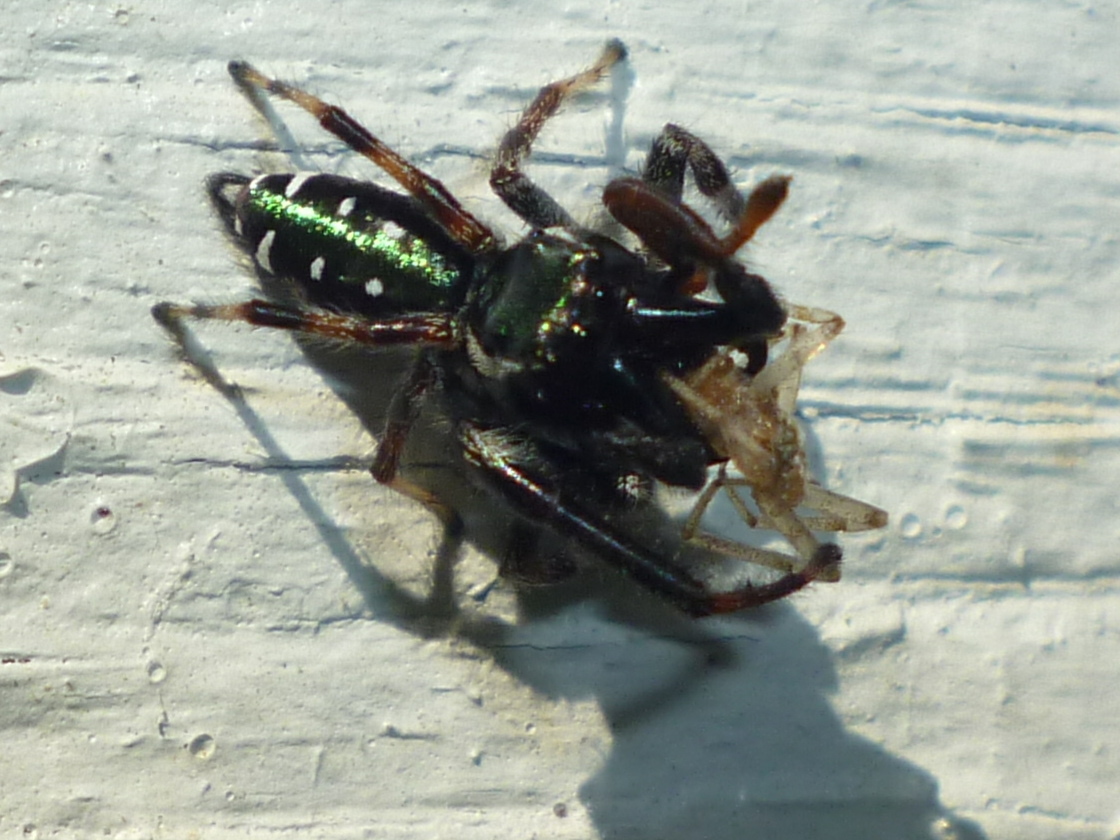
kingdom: Animalia
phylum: Arthropoda
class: Arachnida
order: Araneae
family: Salticidae
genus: Paraphidippus
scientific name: Paraphidippus aurantius
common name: Jumping spiders
